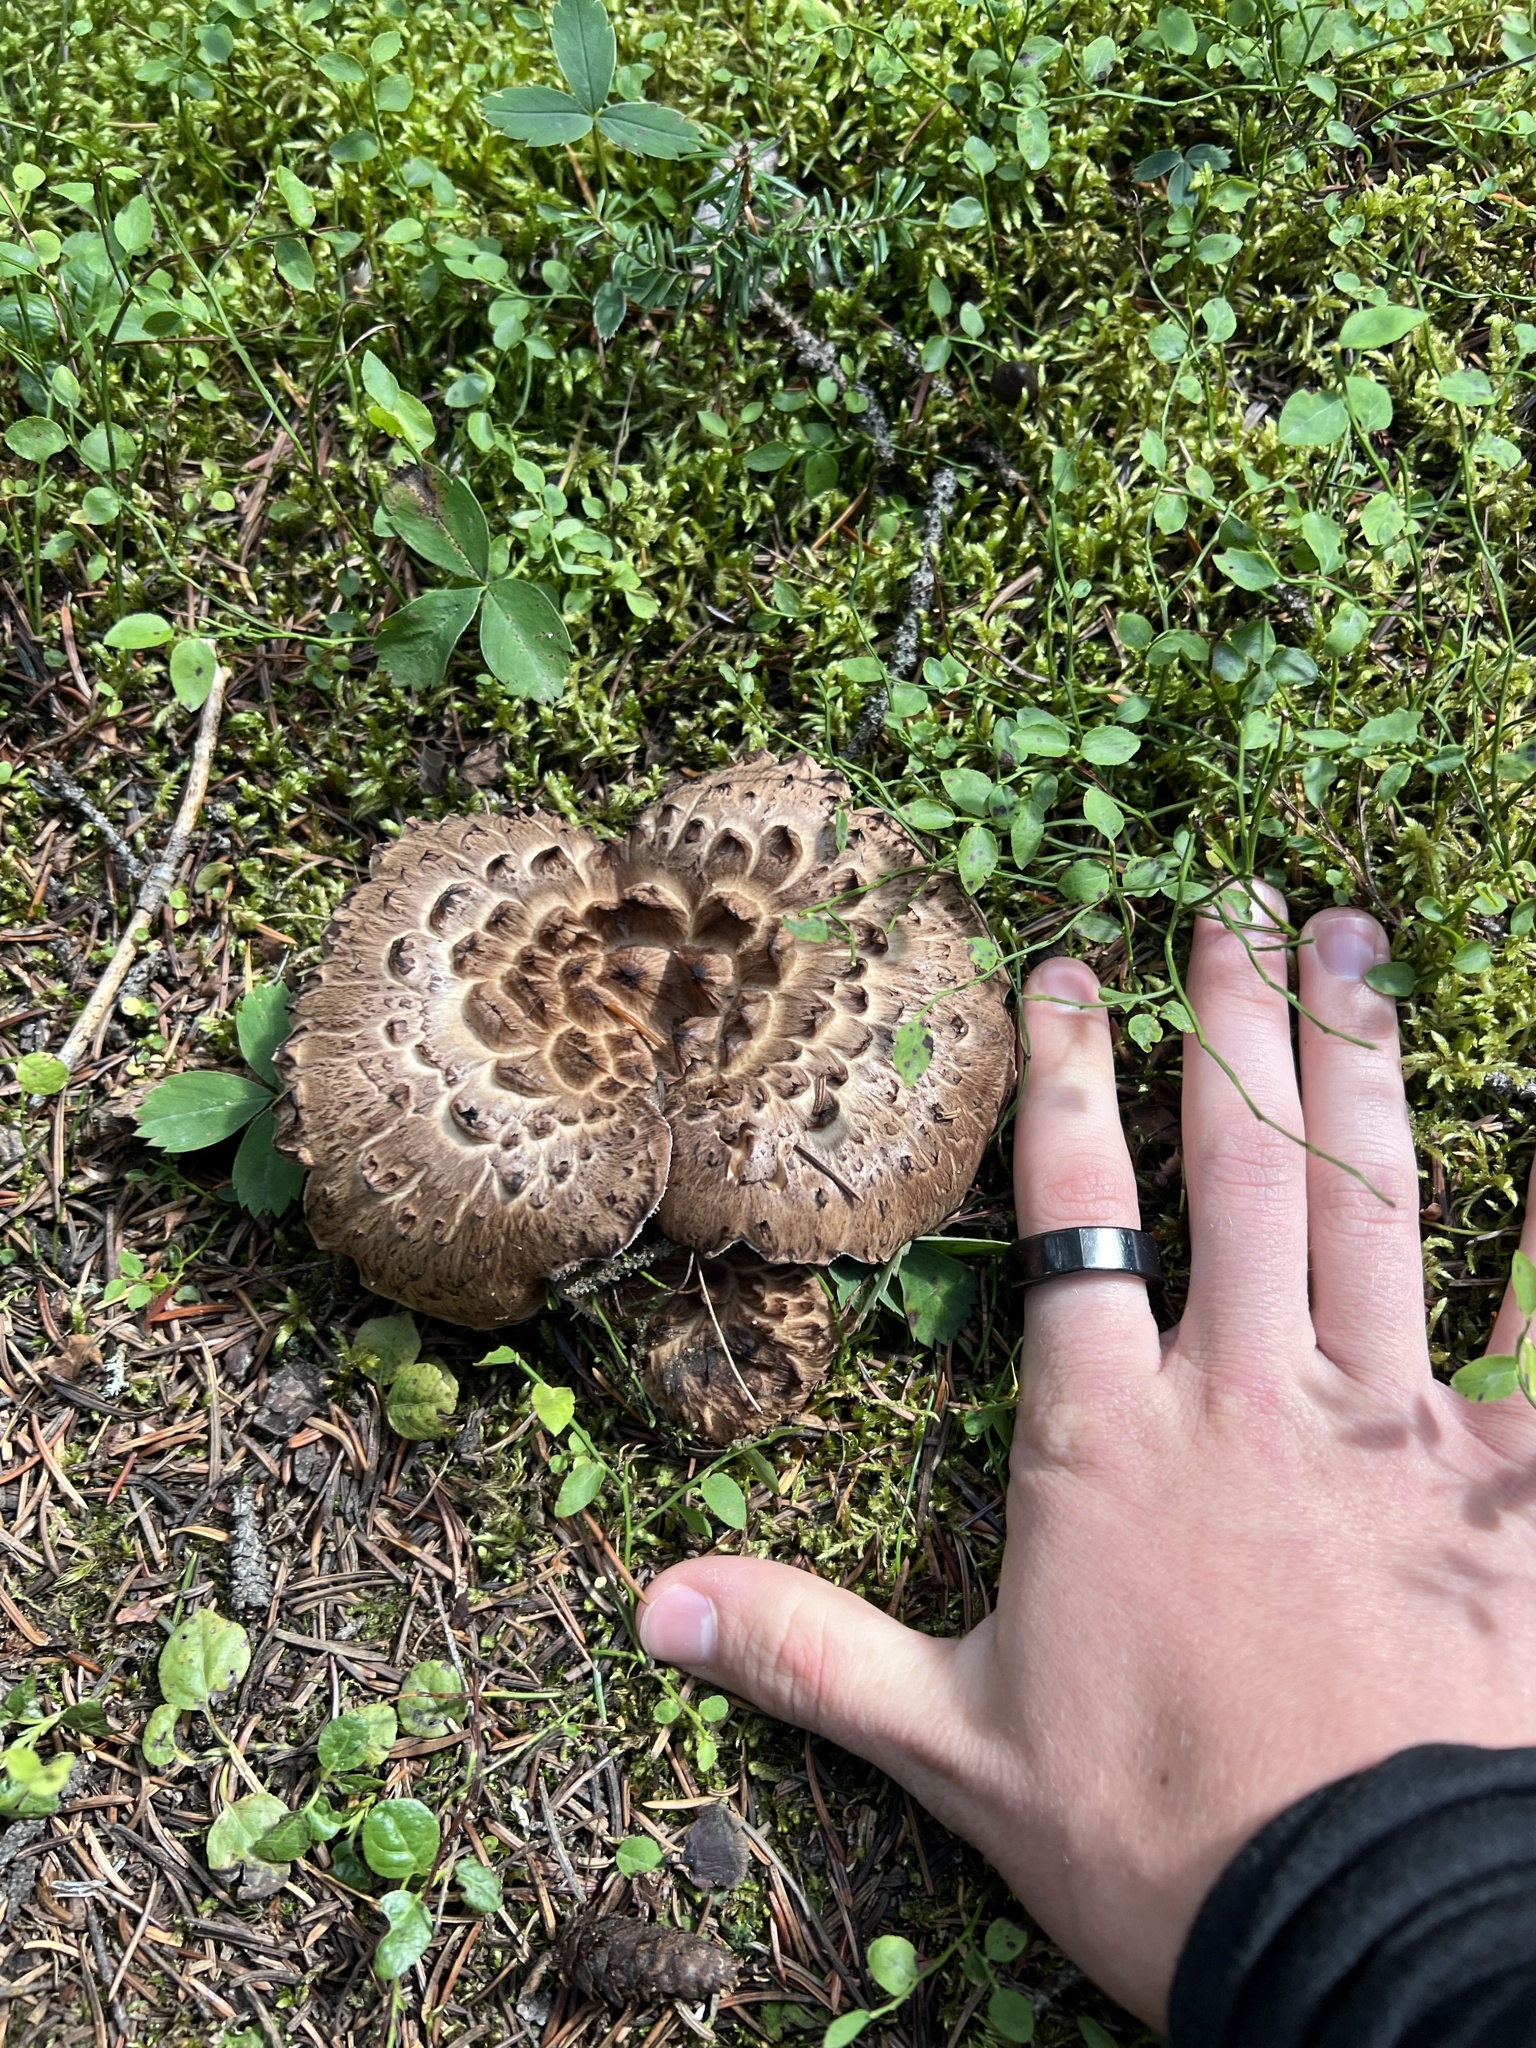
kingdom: Fungi
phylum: Basidiomycota
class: Agaricomycetes
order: Thelephorales
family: Bankeraceae
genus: Sarcodon
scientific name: Sarcodon imbricatus
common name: Shingled hedgehog
